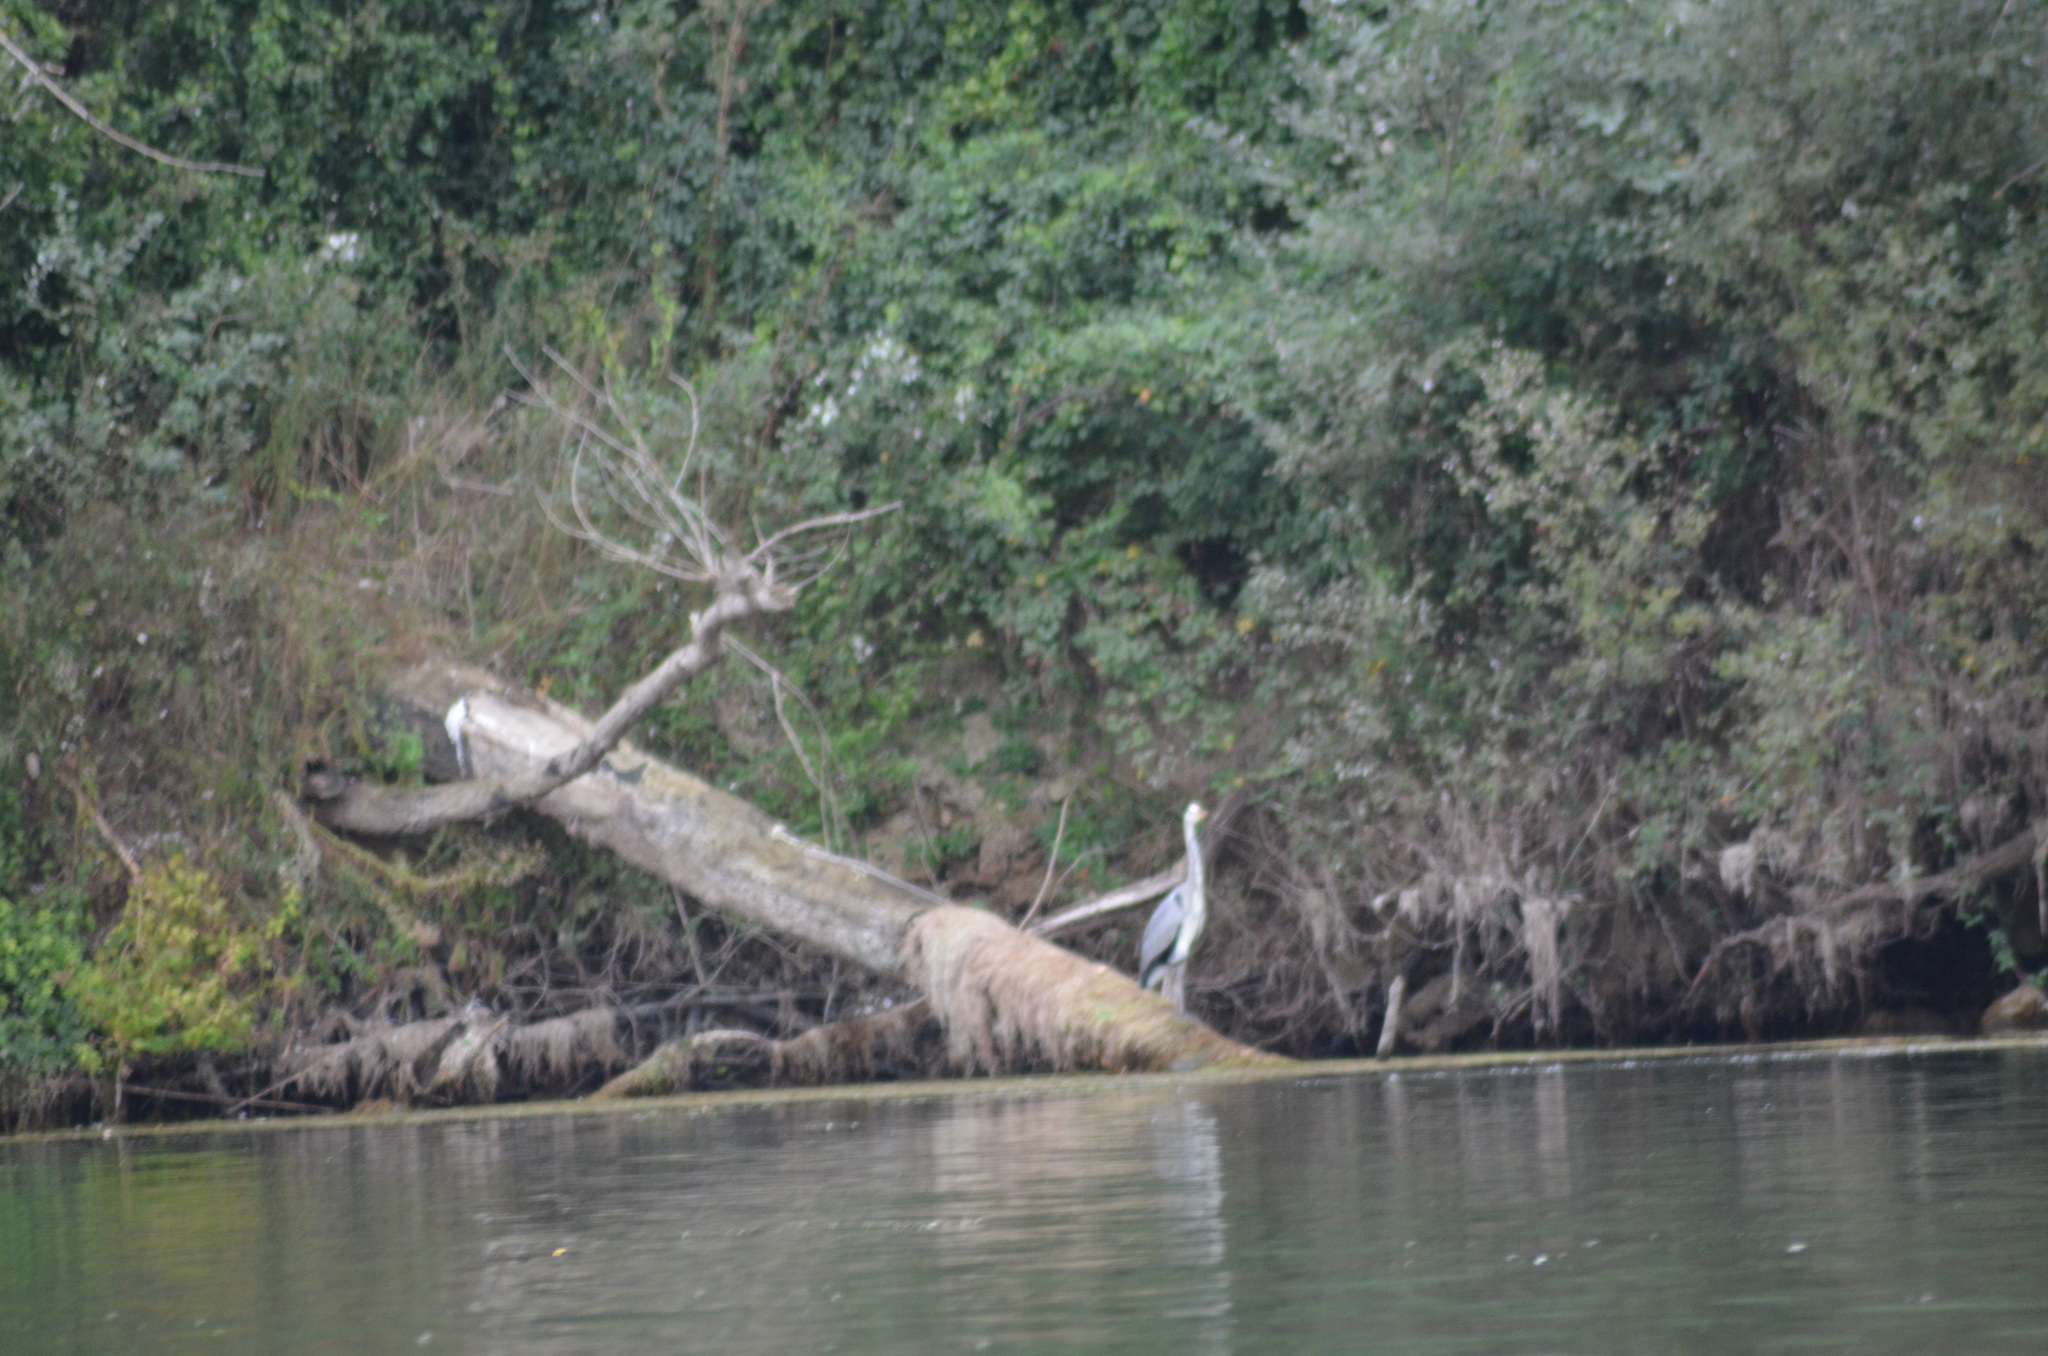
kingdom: Animalia
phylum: Chordata
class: Aves
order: Pelecaniformes
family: Ardeidae
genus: Ardea
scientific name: Ardea cinerea
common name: Grey heron
